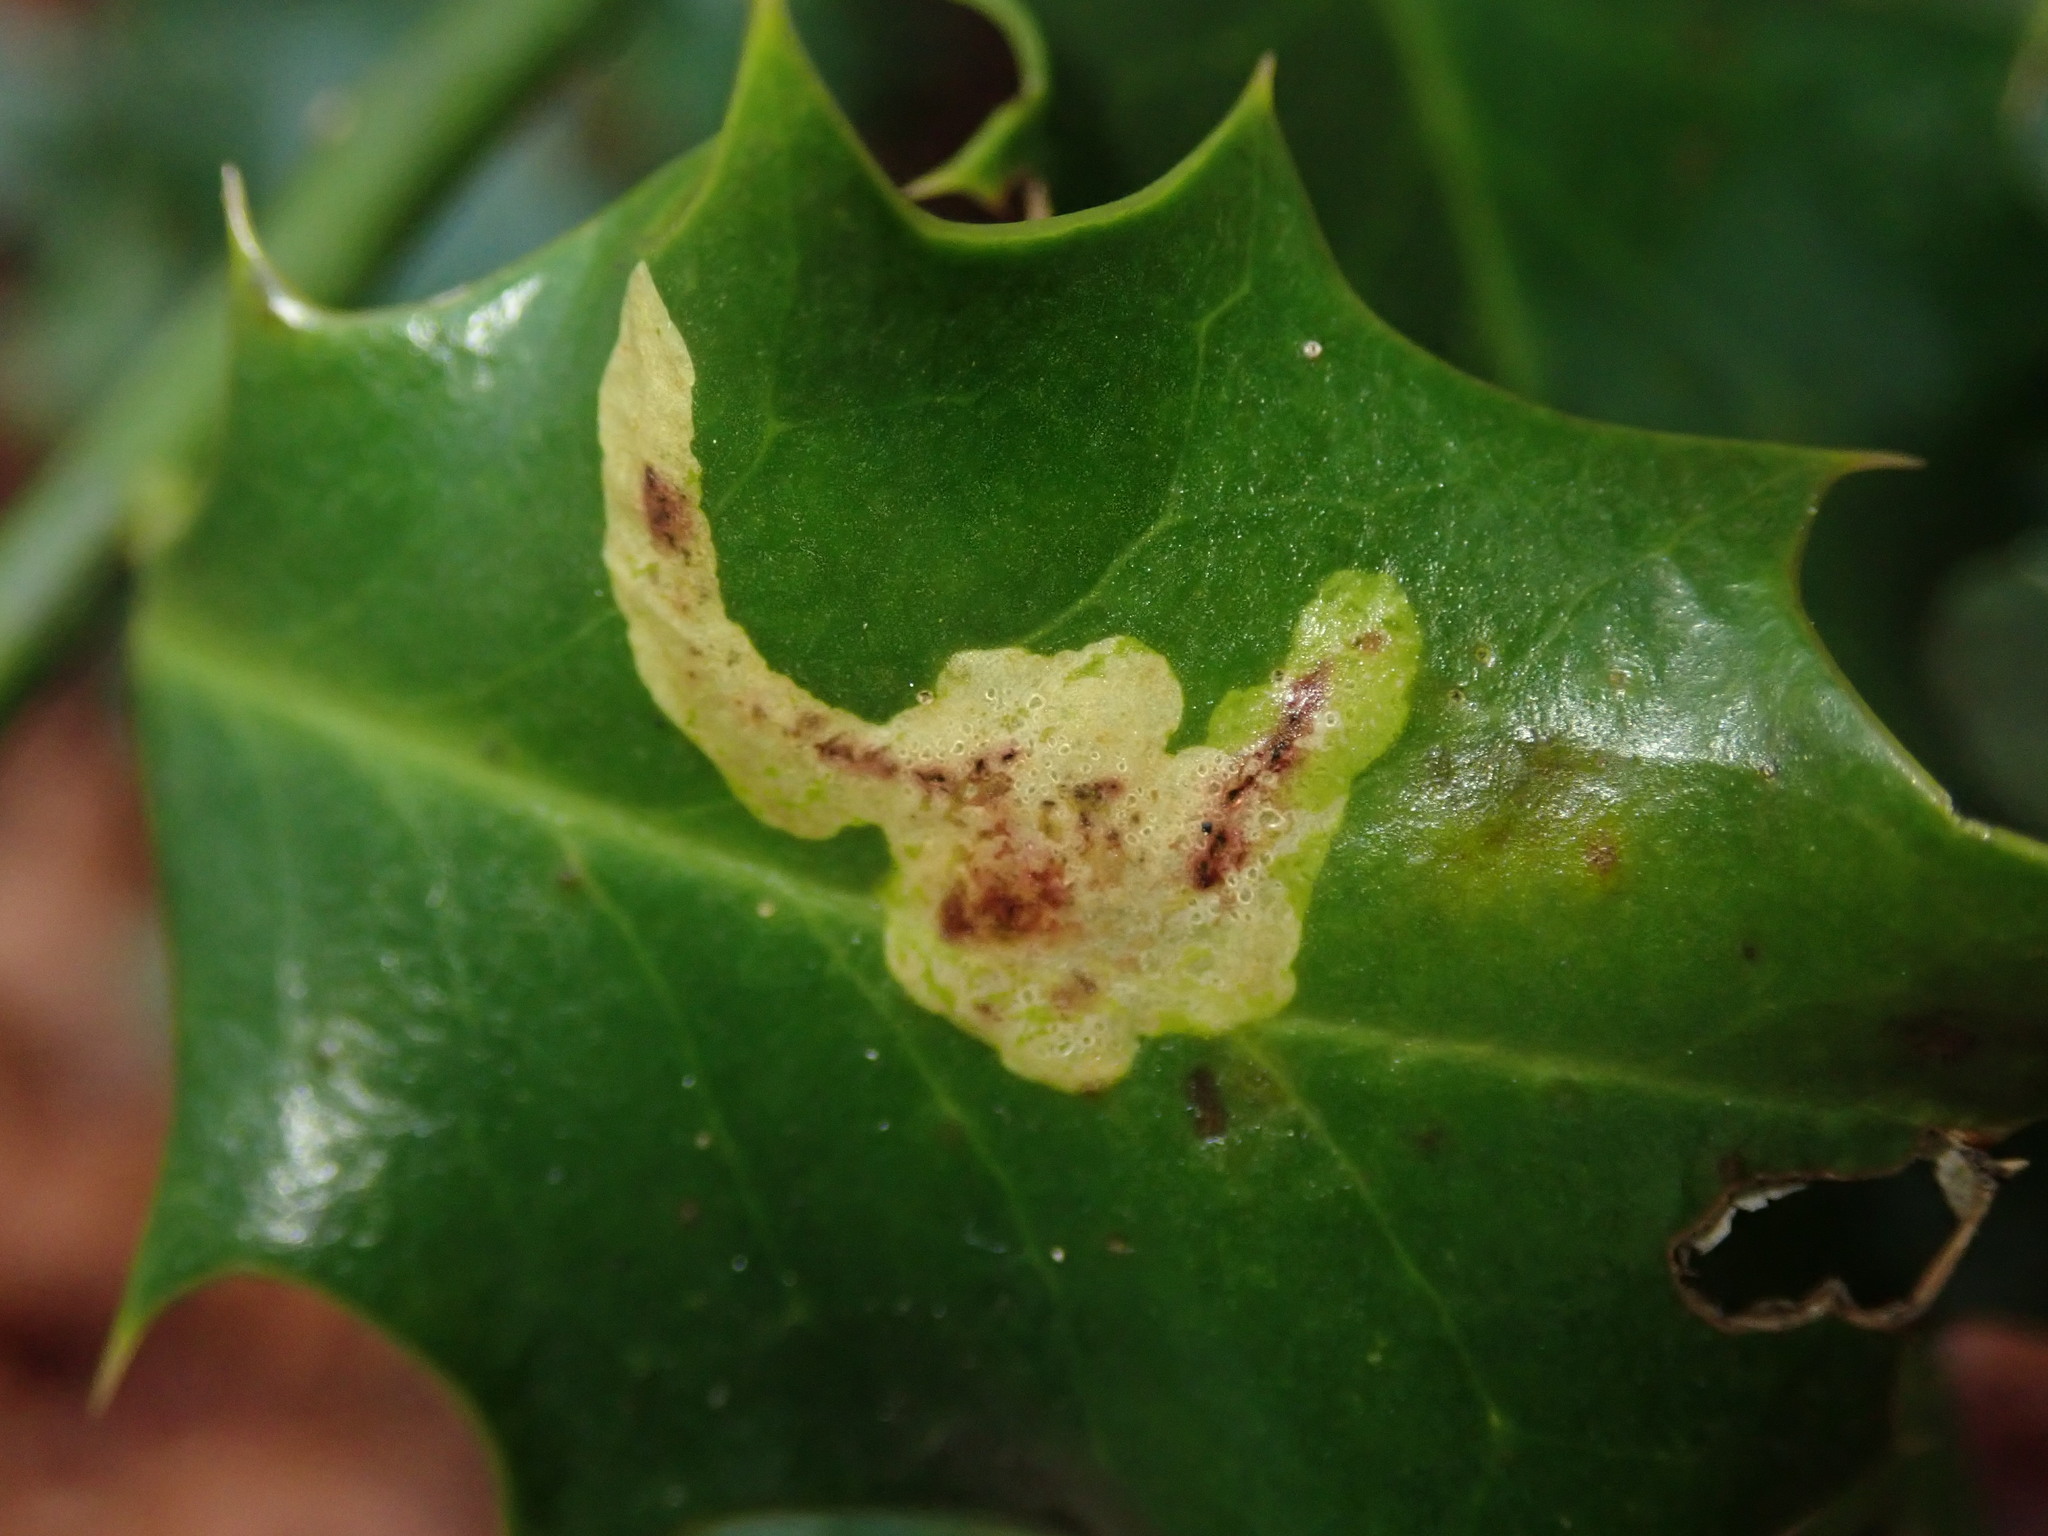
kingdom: Animalia
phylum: Arthropoda
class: Insecta
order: Diptera
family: Agromyzidae
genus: Phytomyza
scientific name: Phytomyza ilicis
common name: Holly leafminer
